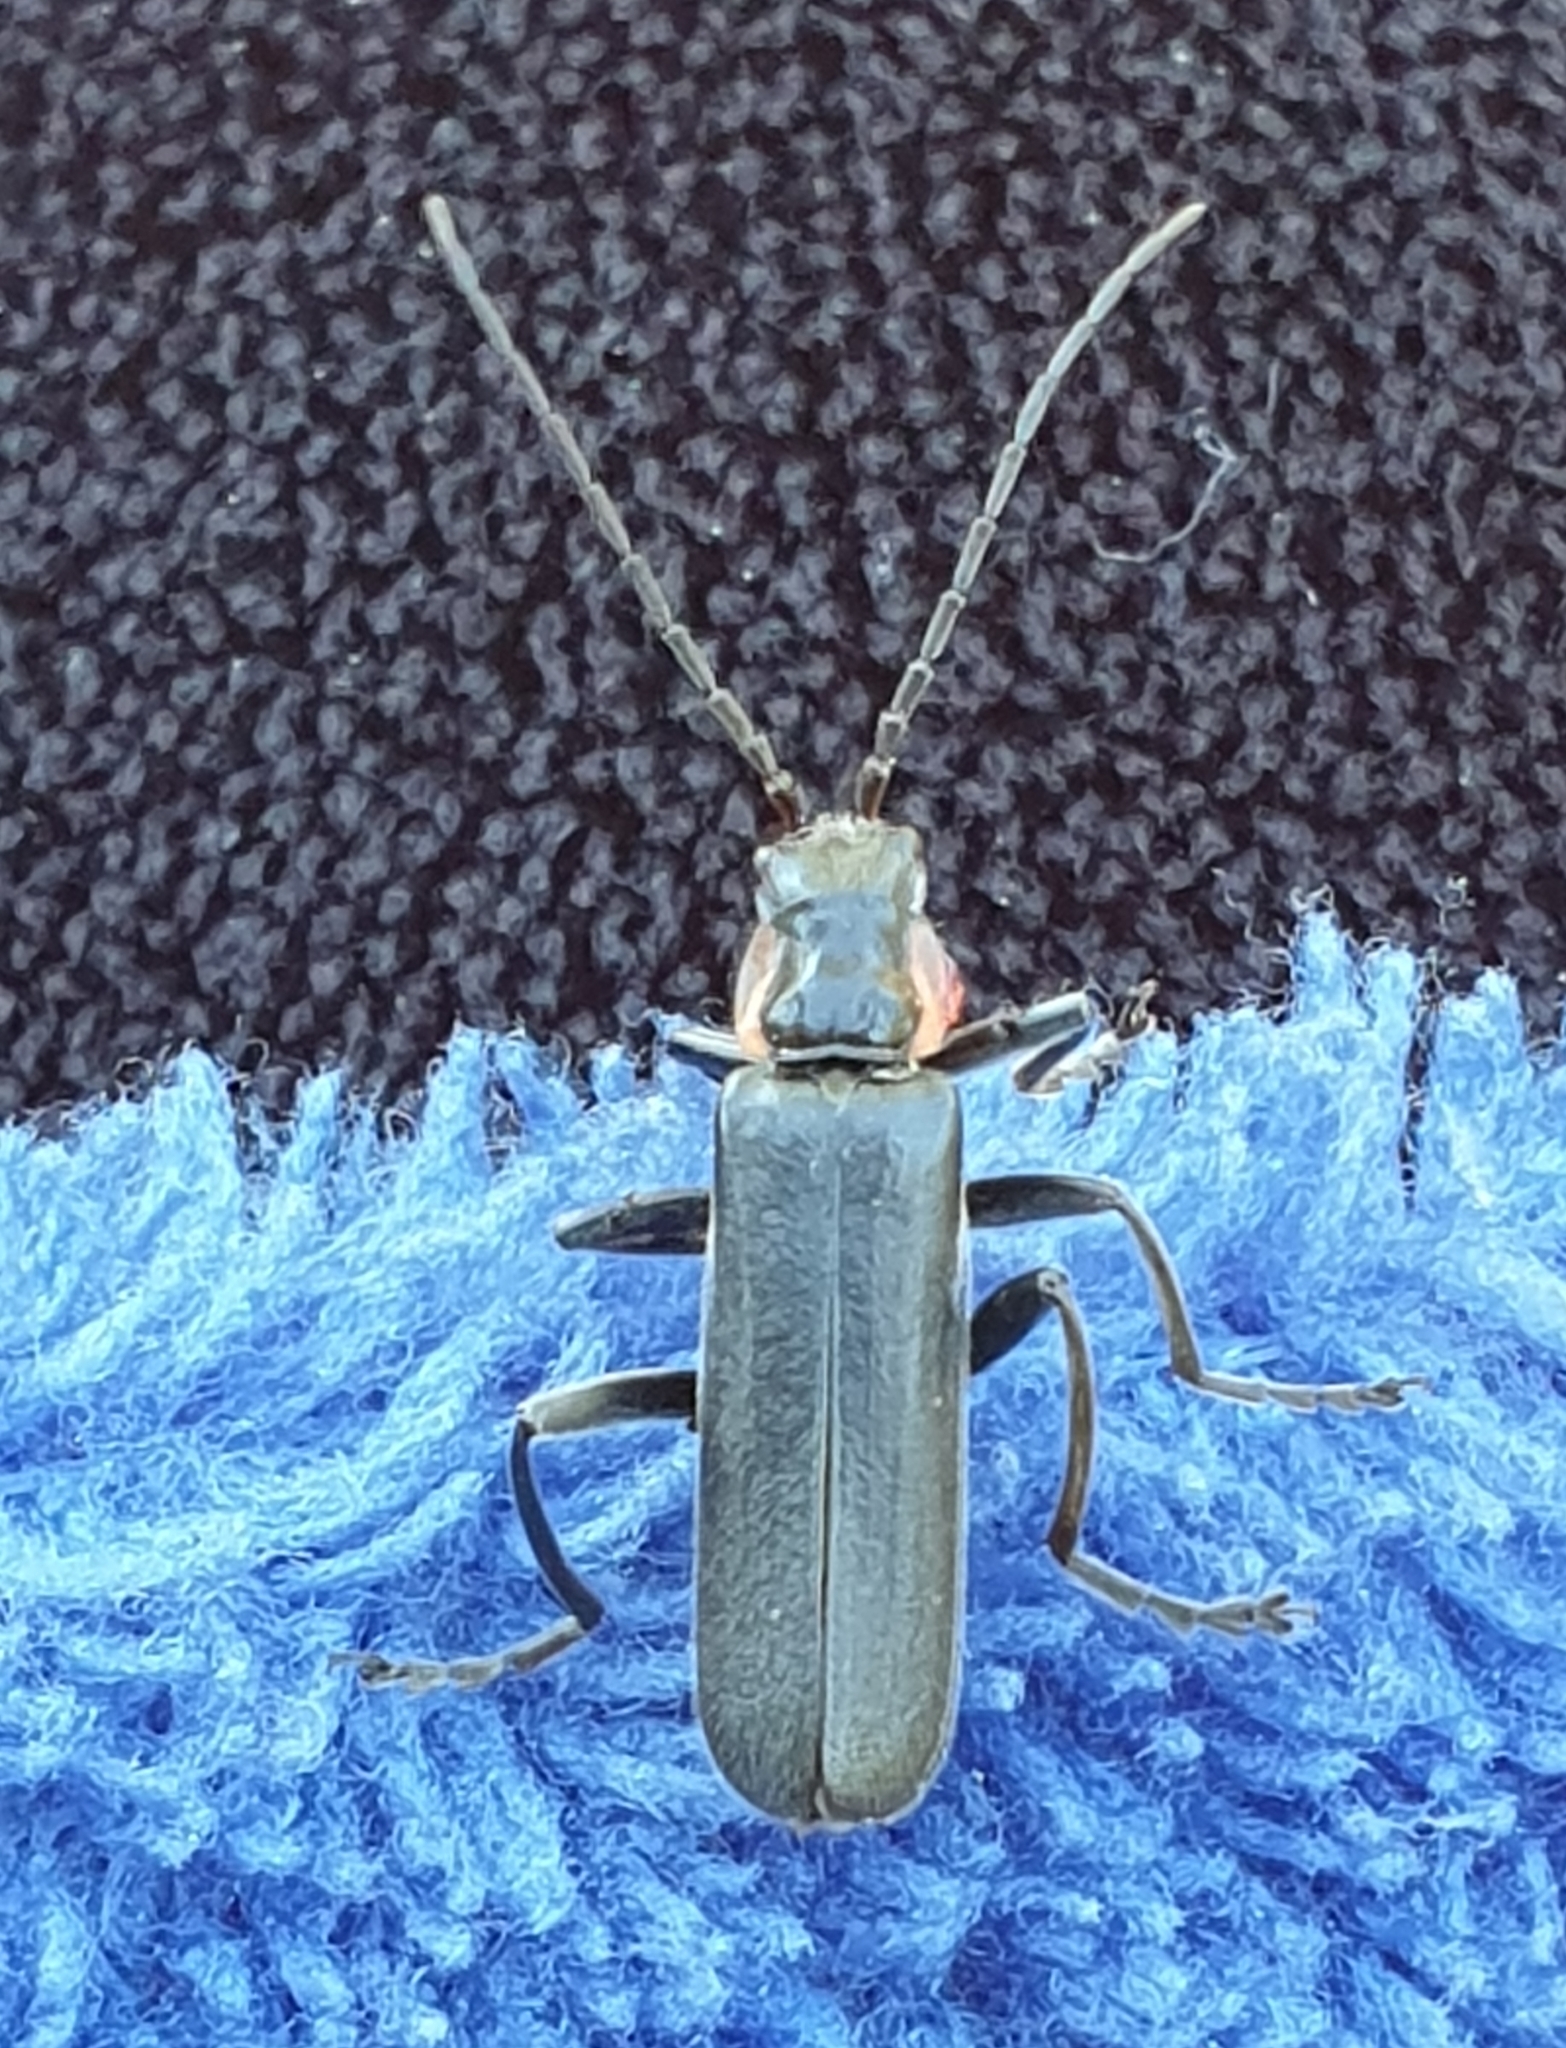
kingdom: Animalia
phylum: Arthropoda
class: Insecta
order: Coleoptera
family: Cantharidae
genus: Cantharis
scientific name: Cantharis obscura
